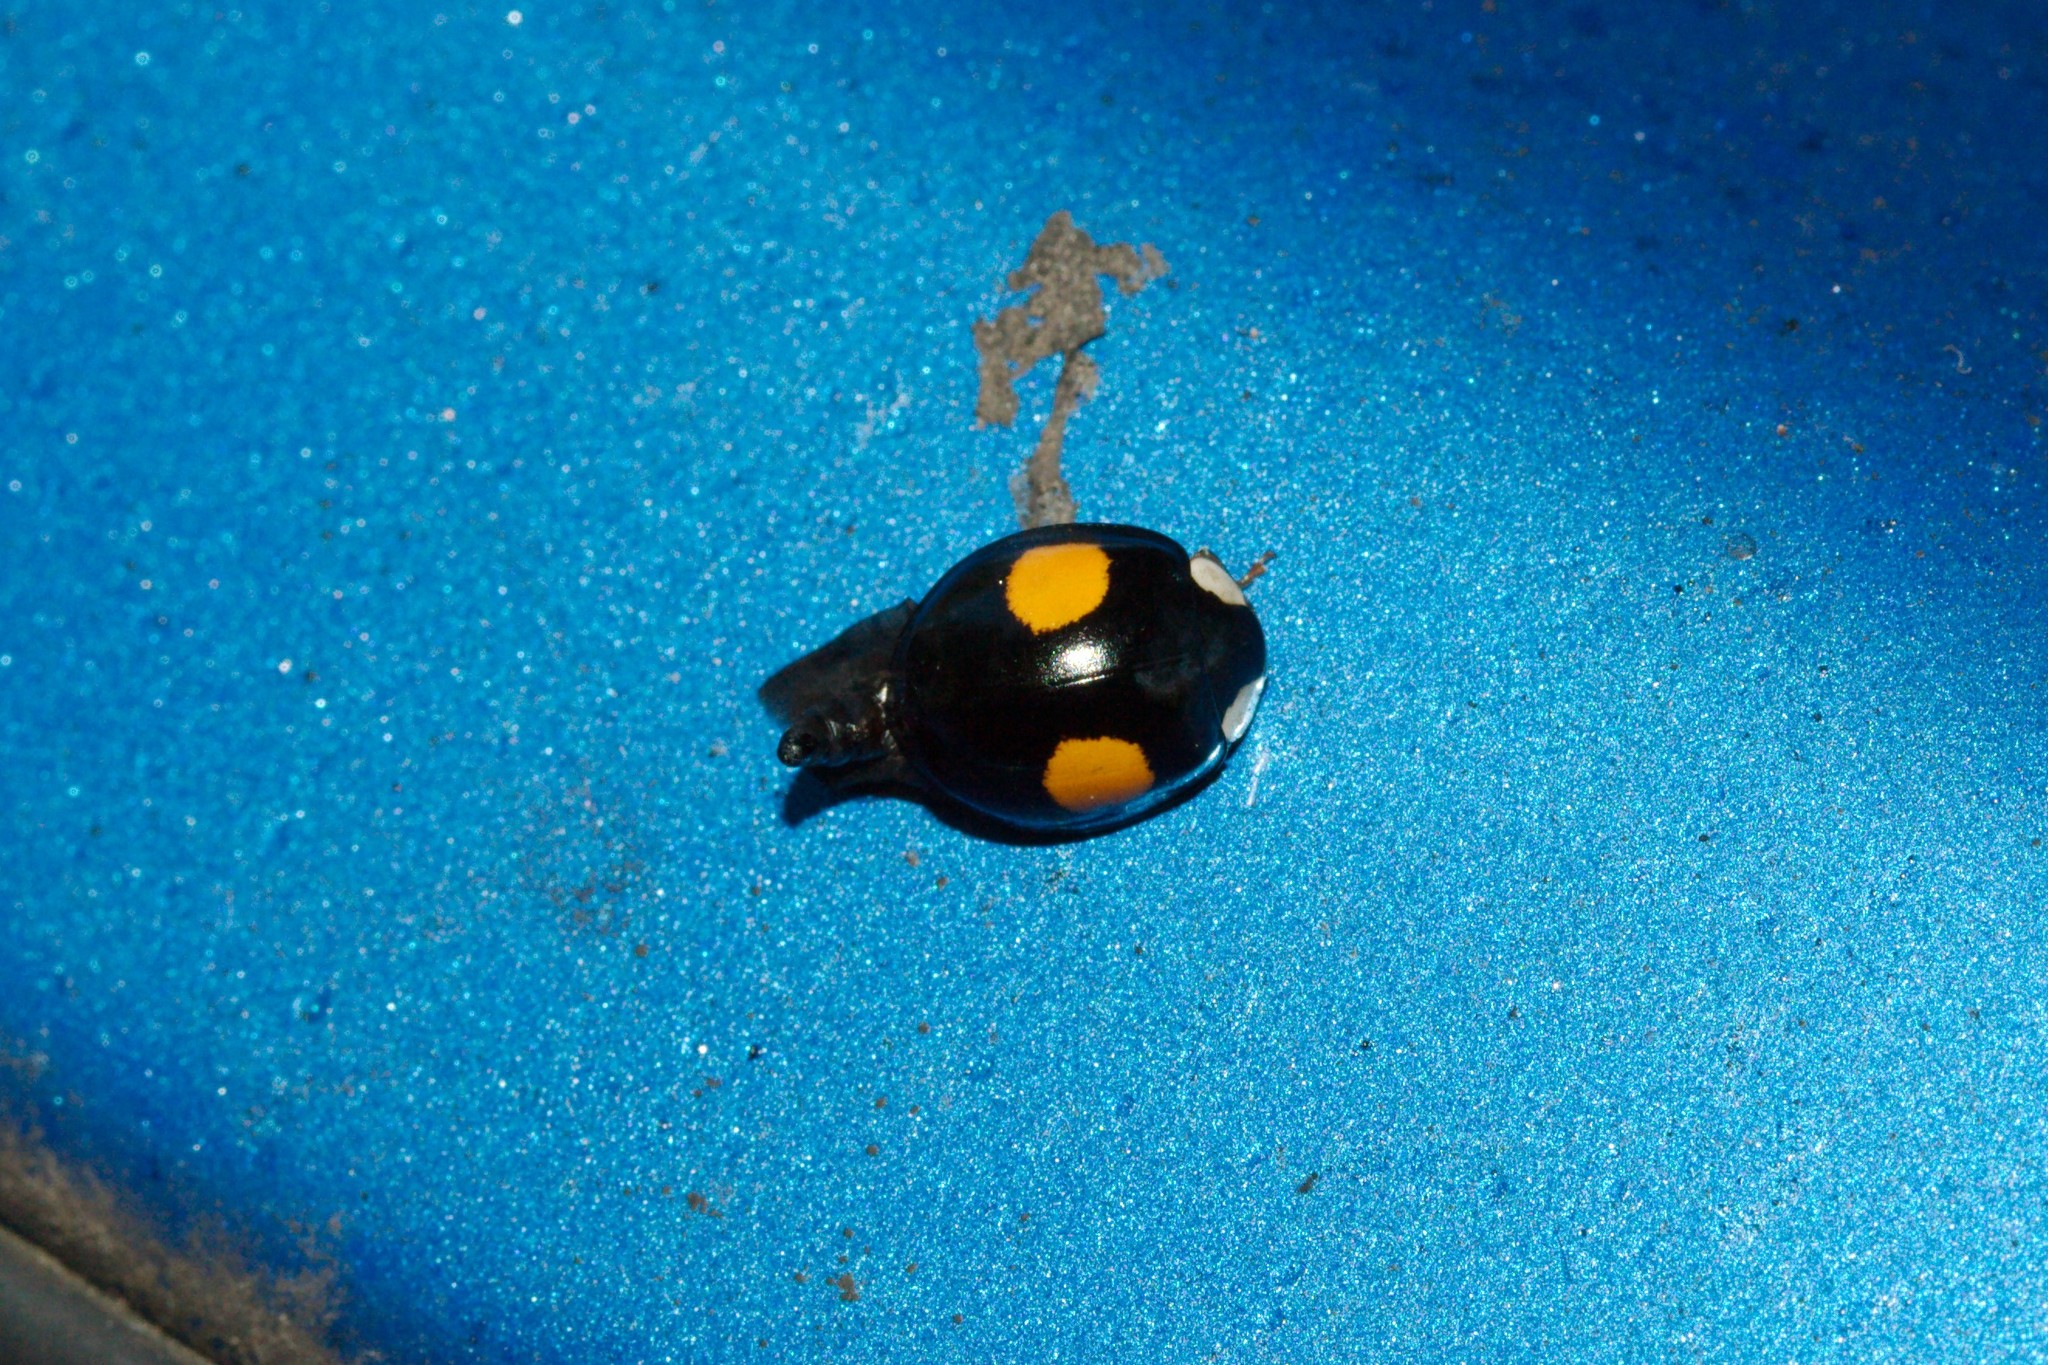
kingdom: Animalia
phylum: Arthropoda
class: Insecta
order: Coleoptera
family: Coccinellidae
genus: Harmonia
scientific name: Harmonia axyridis
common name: Harlequin ladybird
